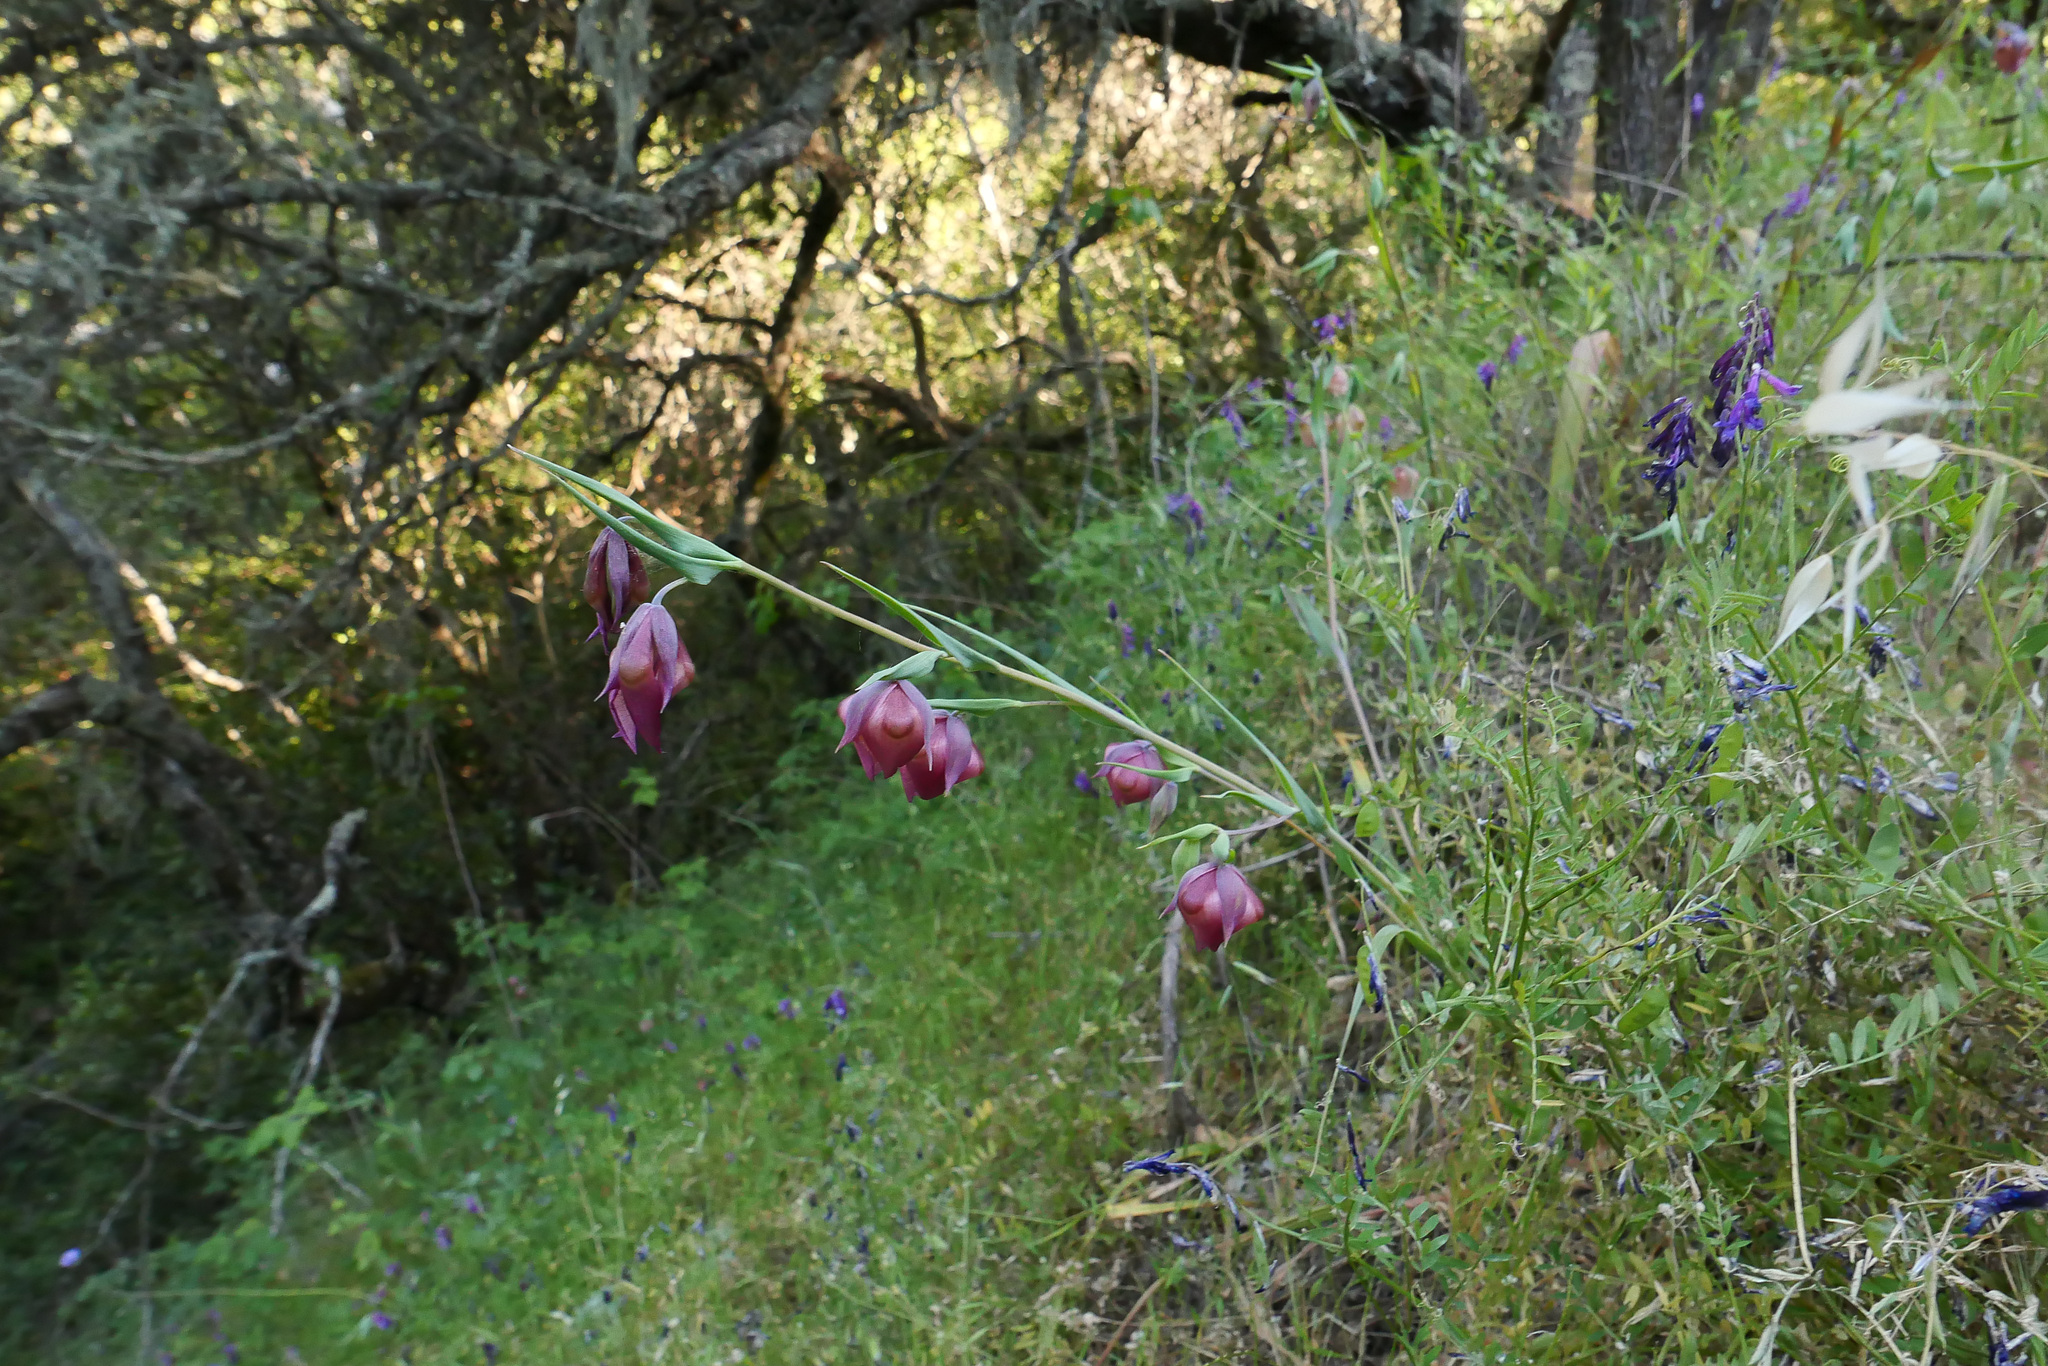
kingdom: Plantae
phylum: Tracheophyta
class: Liliopsida
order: Liliales
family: Liliaceae
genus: Calochortus
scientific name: Calochortus albus
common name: Fairy-lantern
